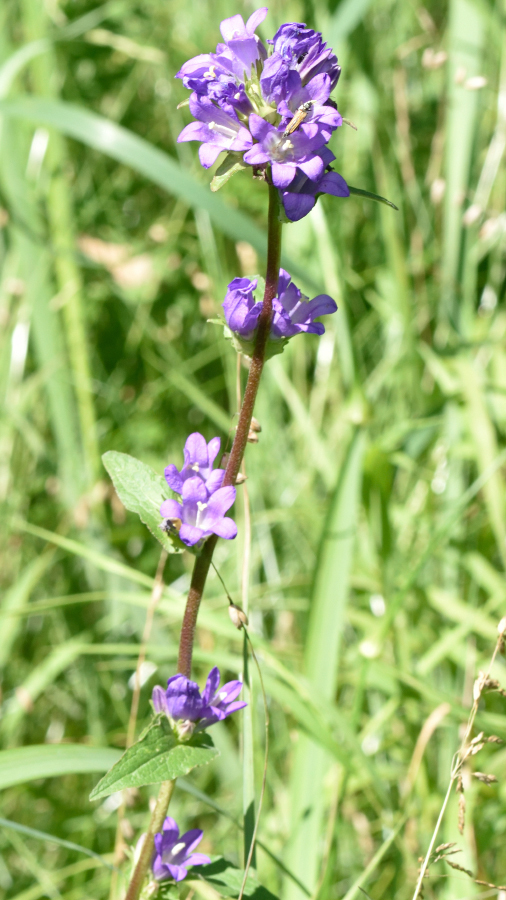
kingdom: Plantae
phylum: Tracheophyta
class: Magnoliopsida
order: Asterales
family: Campanulaceae
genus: Campanula
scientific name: Campanula glomerata
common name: Clustered bellflower
